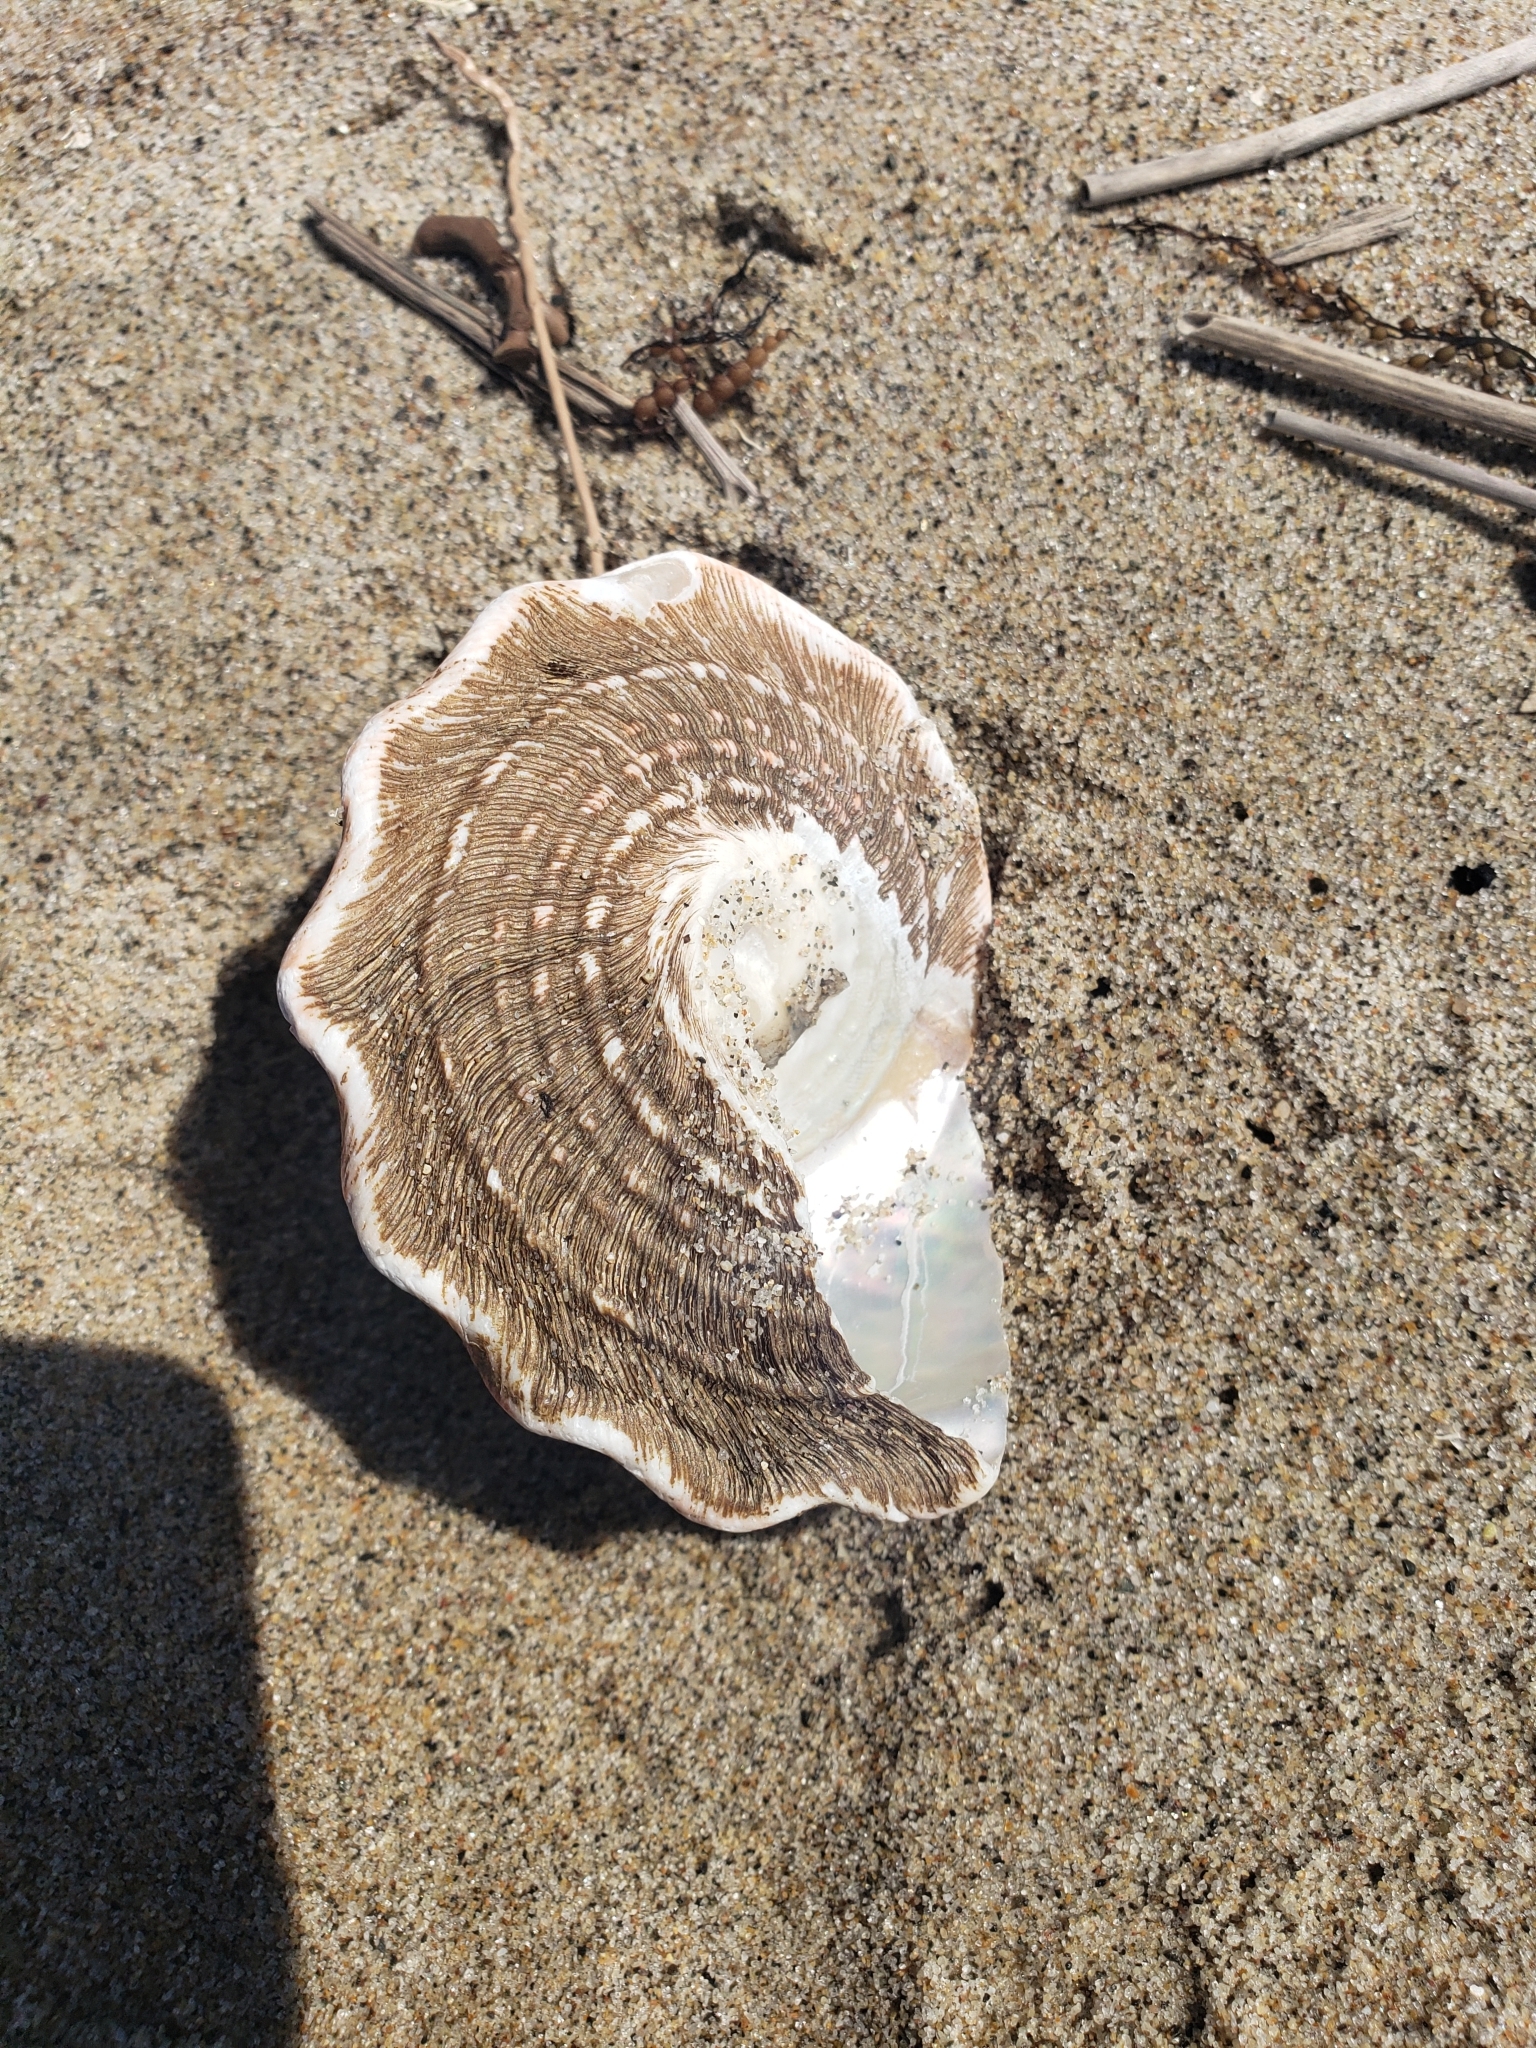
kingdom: Animalia
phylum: Mollusca
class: Gastropoda
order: Trochida
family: Turbinidae
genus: Megastraea
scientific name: Megastraea undosa
